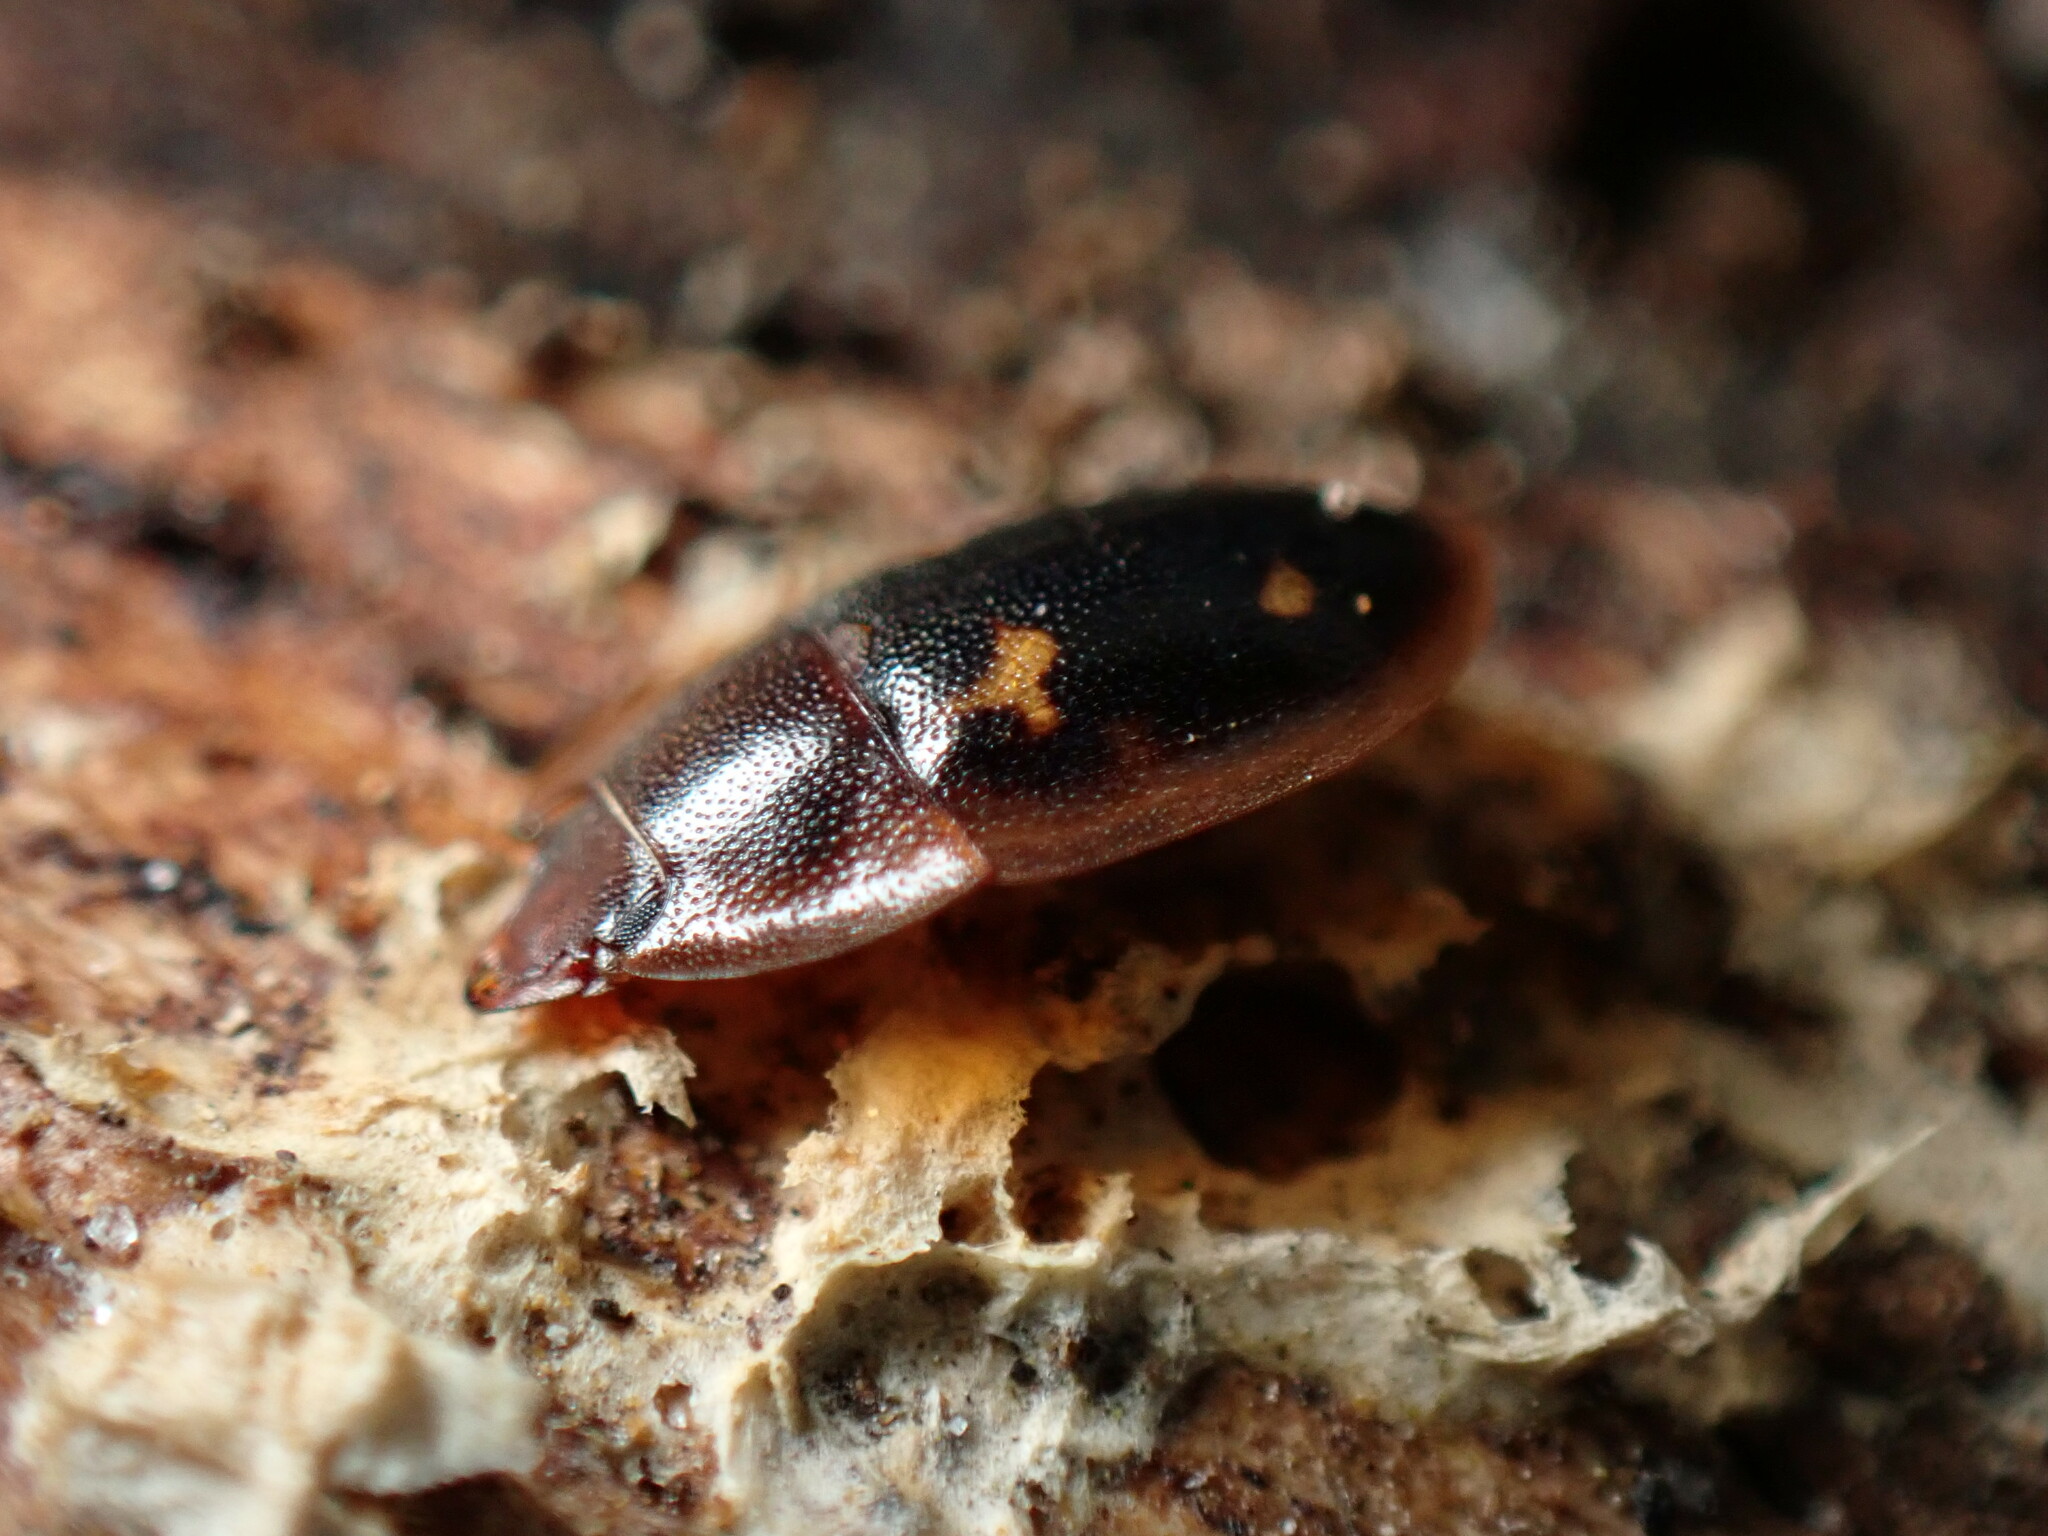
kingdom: Animalia
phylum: Arthropoda
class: Insecta
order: Coleoptera
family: Nitidulidae
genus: Prometopia
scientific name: Prometopia sexmaculata
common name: Six-spotted sap-feeding beetle
